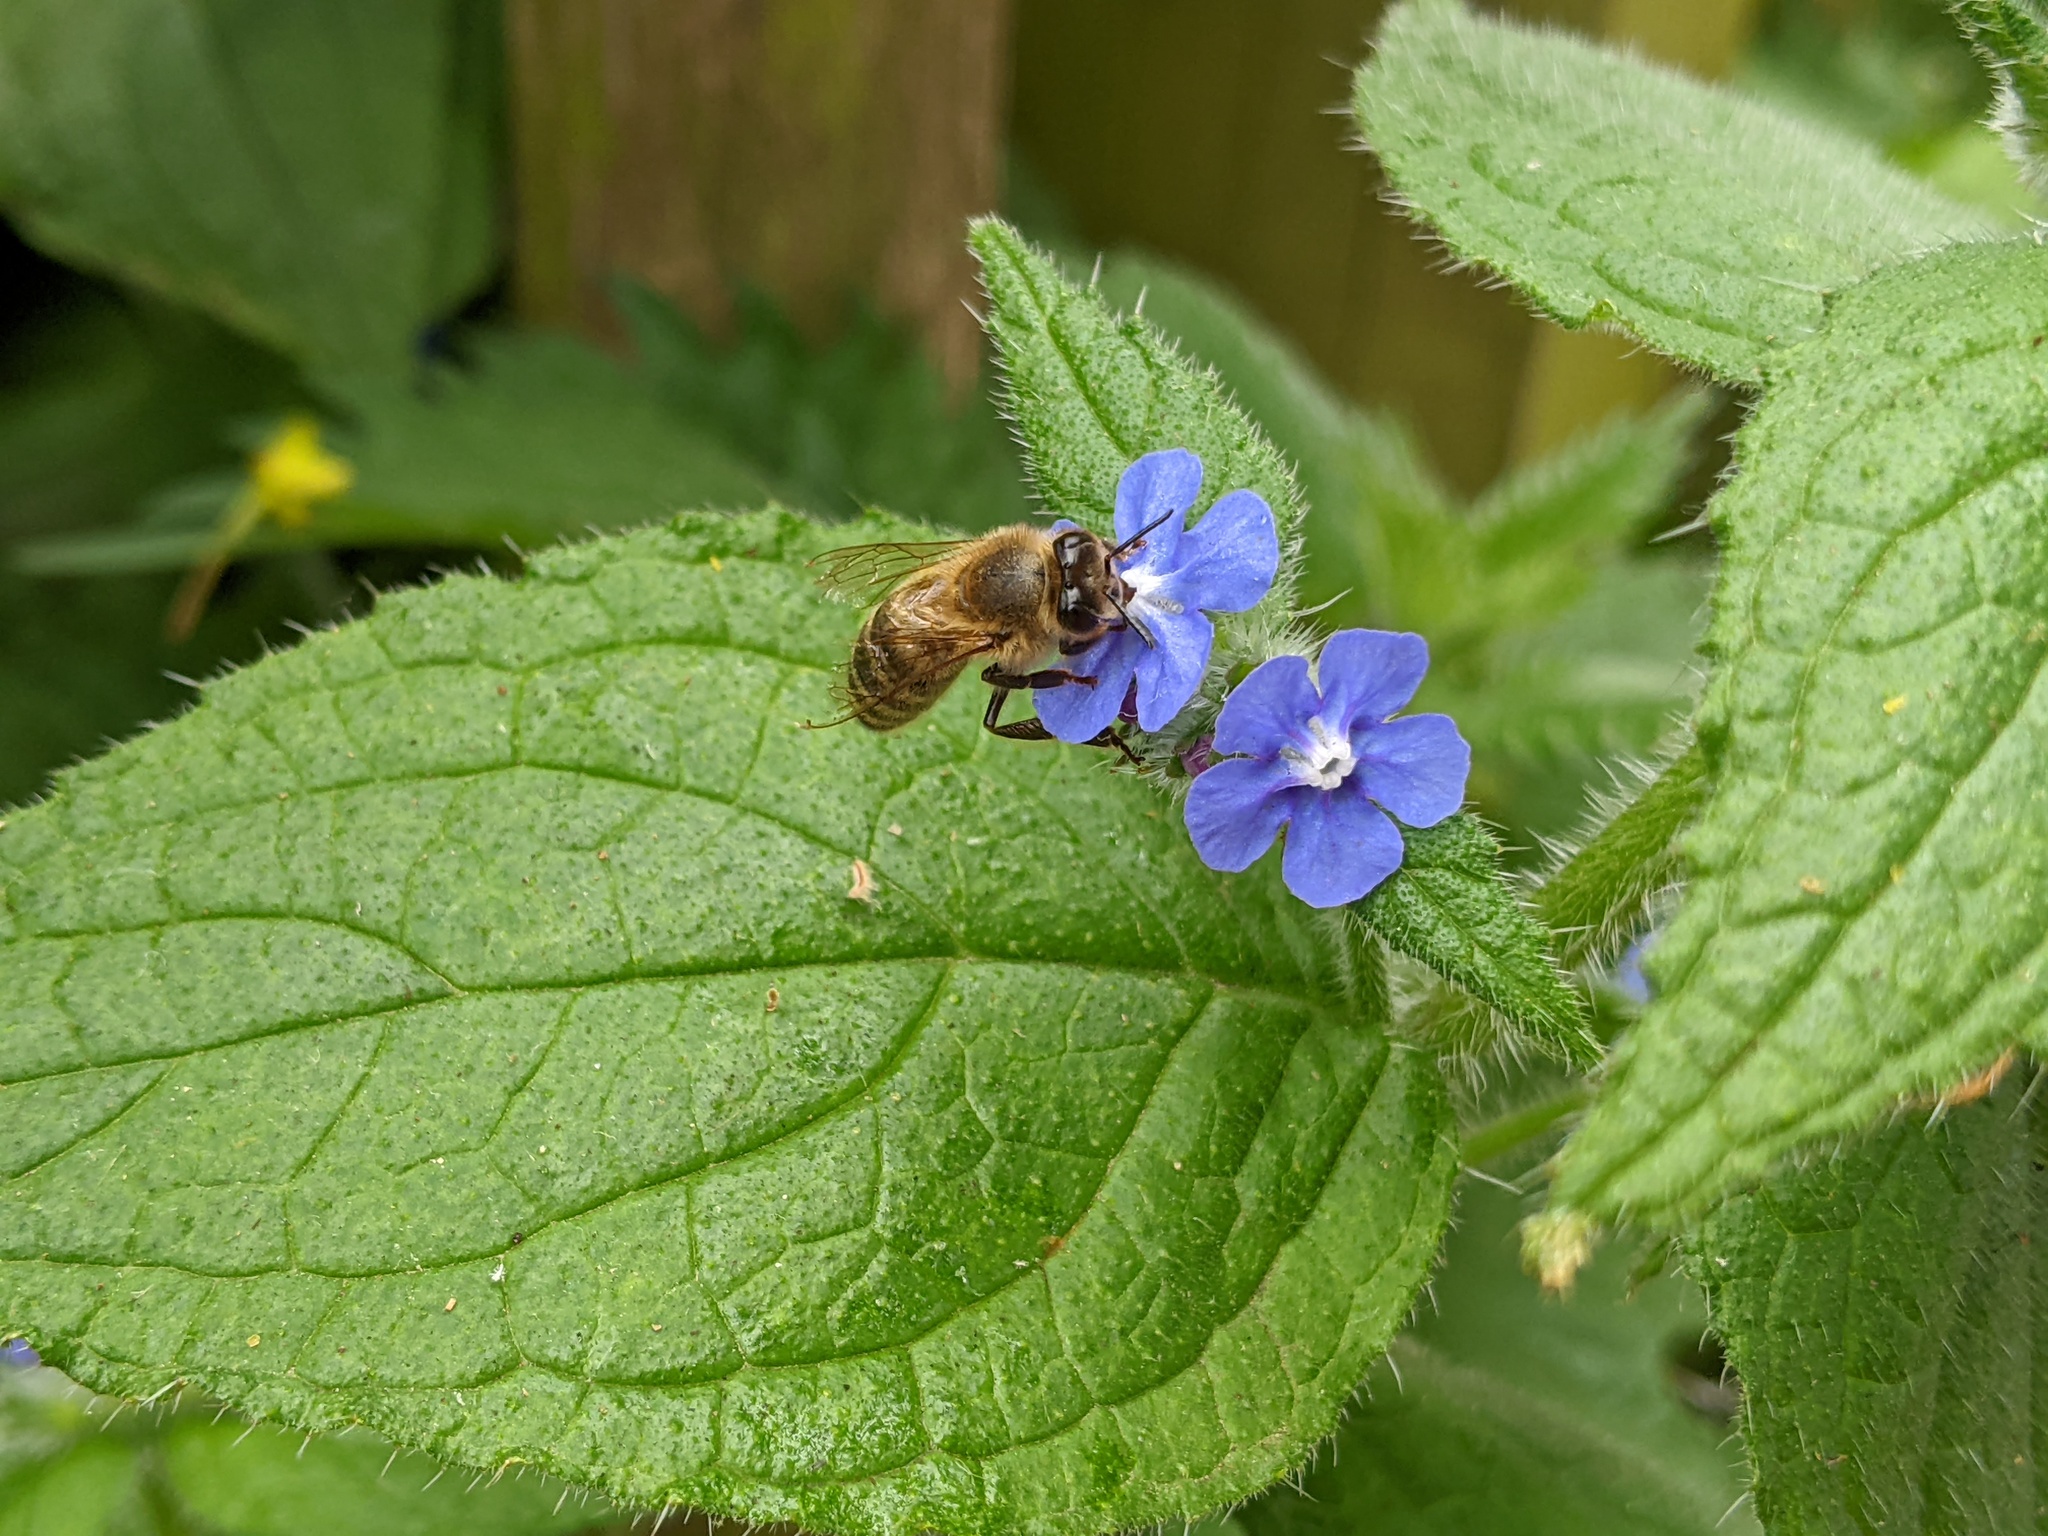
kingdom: Animalia
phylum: Arthropoda
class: Insecta
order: Hymenoptera
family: Apidae
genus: Apis
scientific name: Apis mellifera
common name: Honey bee
